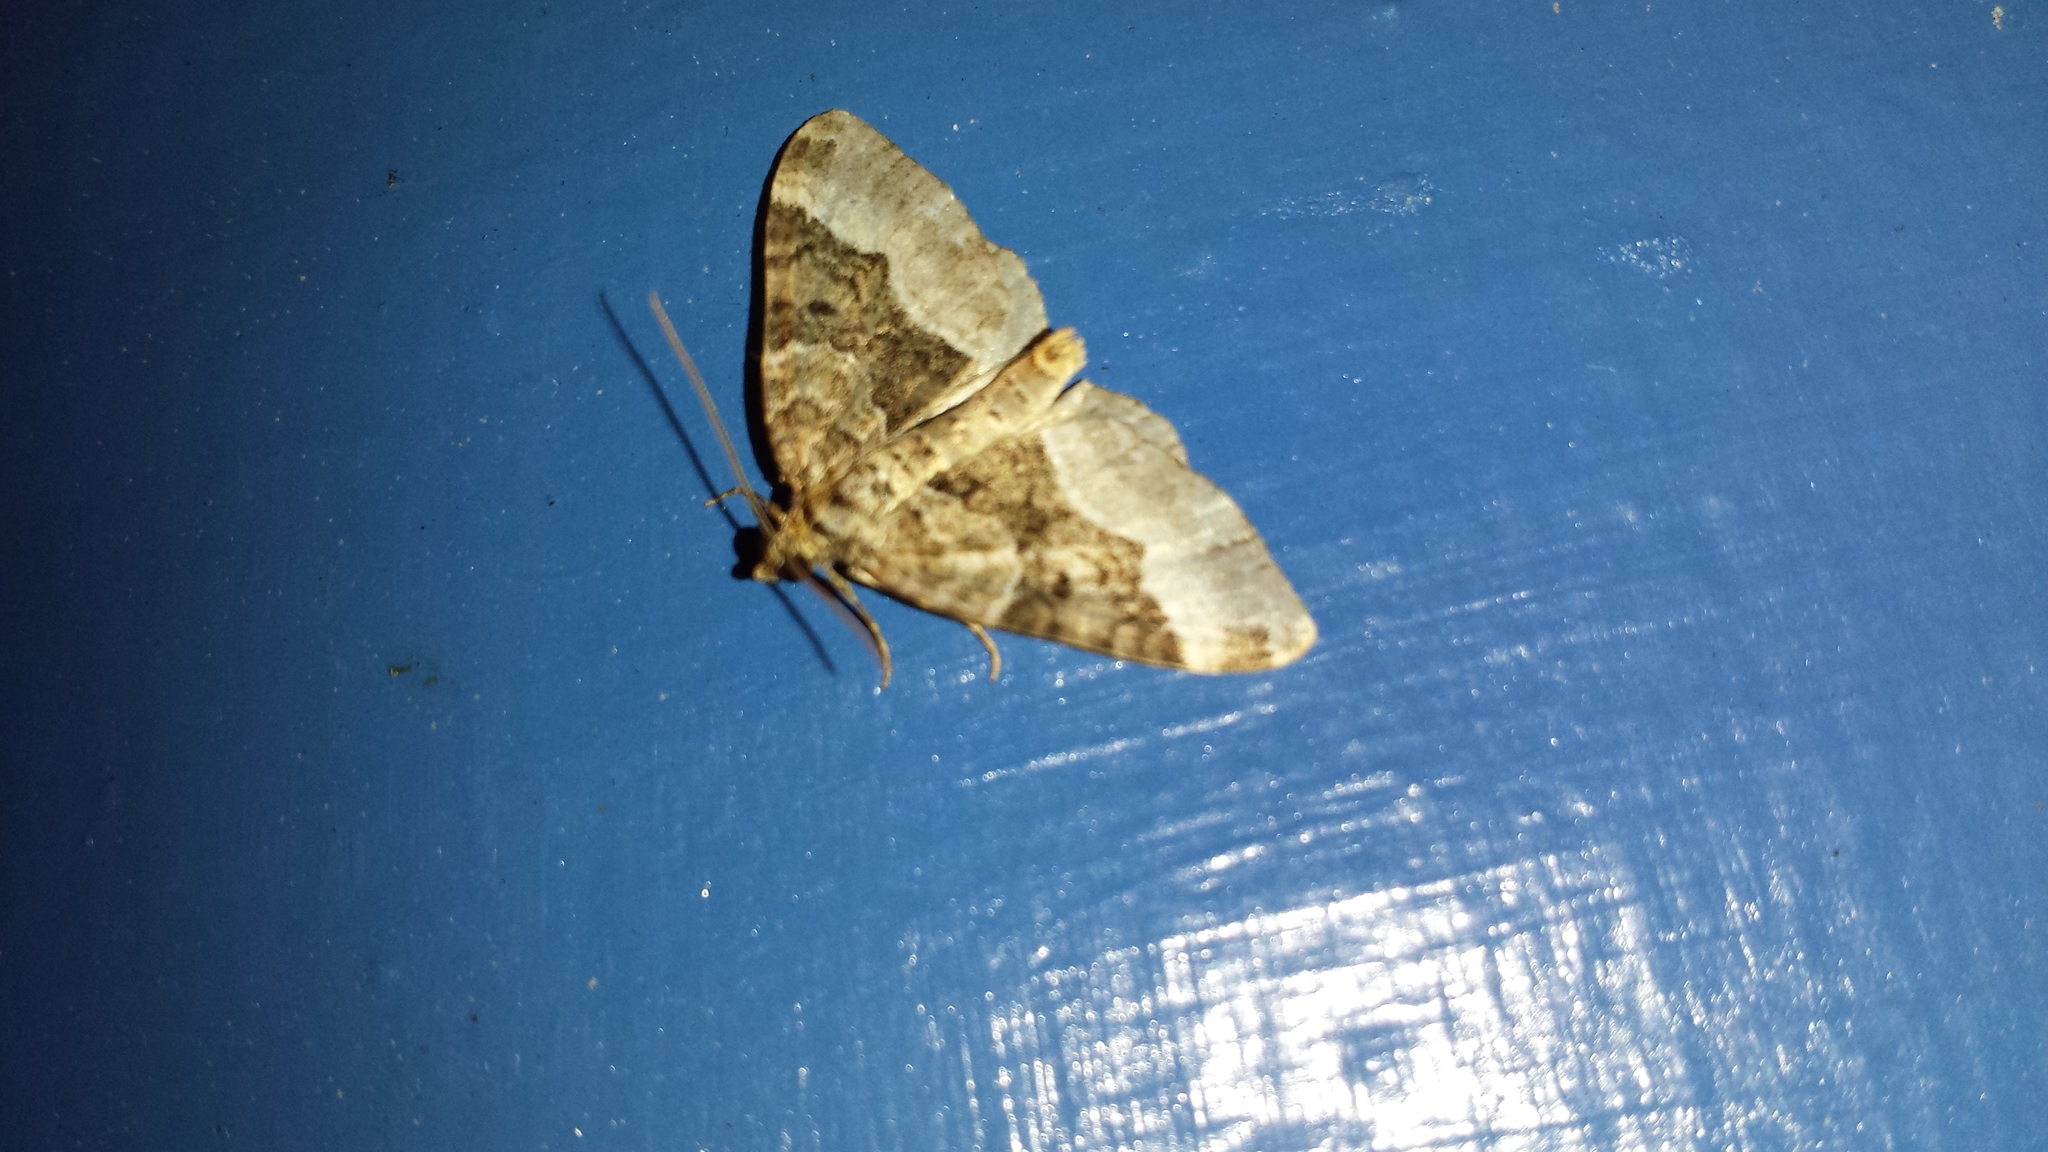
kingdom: Animalia
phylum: Arthropoda
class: Insecta
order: Lepidoptera
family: Geometridae
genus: Euphyia
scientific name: Euphyia intermediata
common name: Sharp-angled carpet
